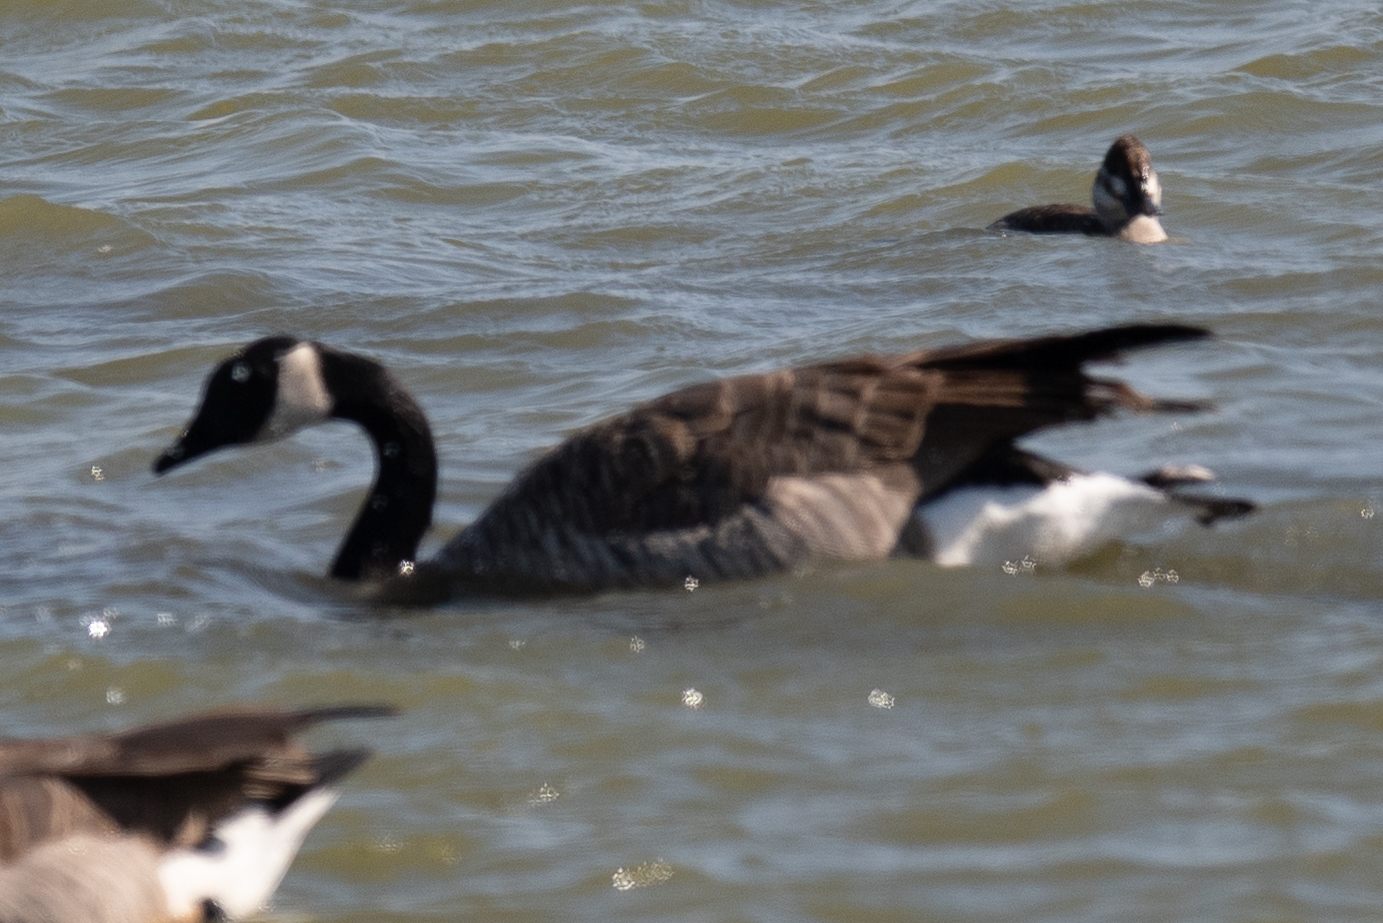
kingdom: Animalia
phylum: Chordata
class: Aves
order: Anseriformes
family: Anatidae
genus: Branta
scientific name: Branta canadensis
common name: Canada goose
